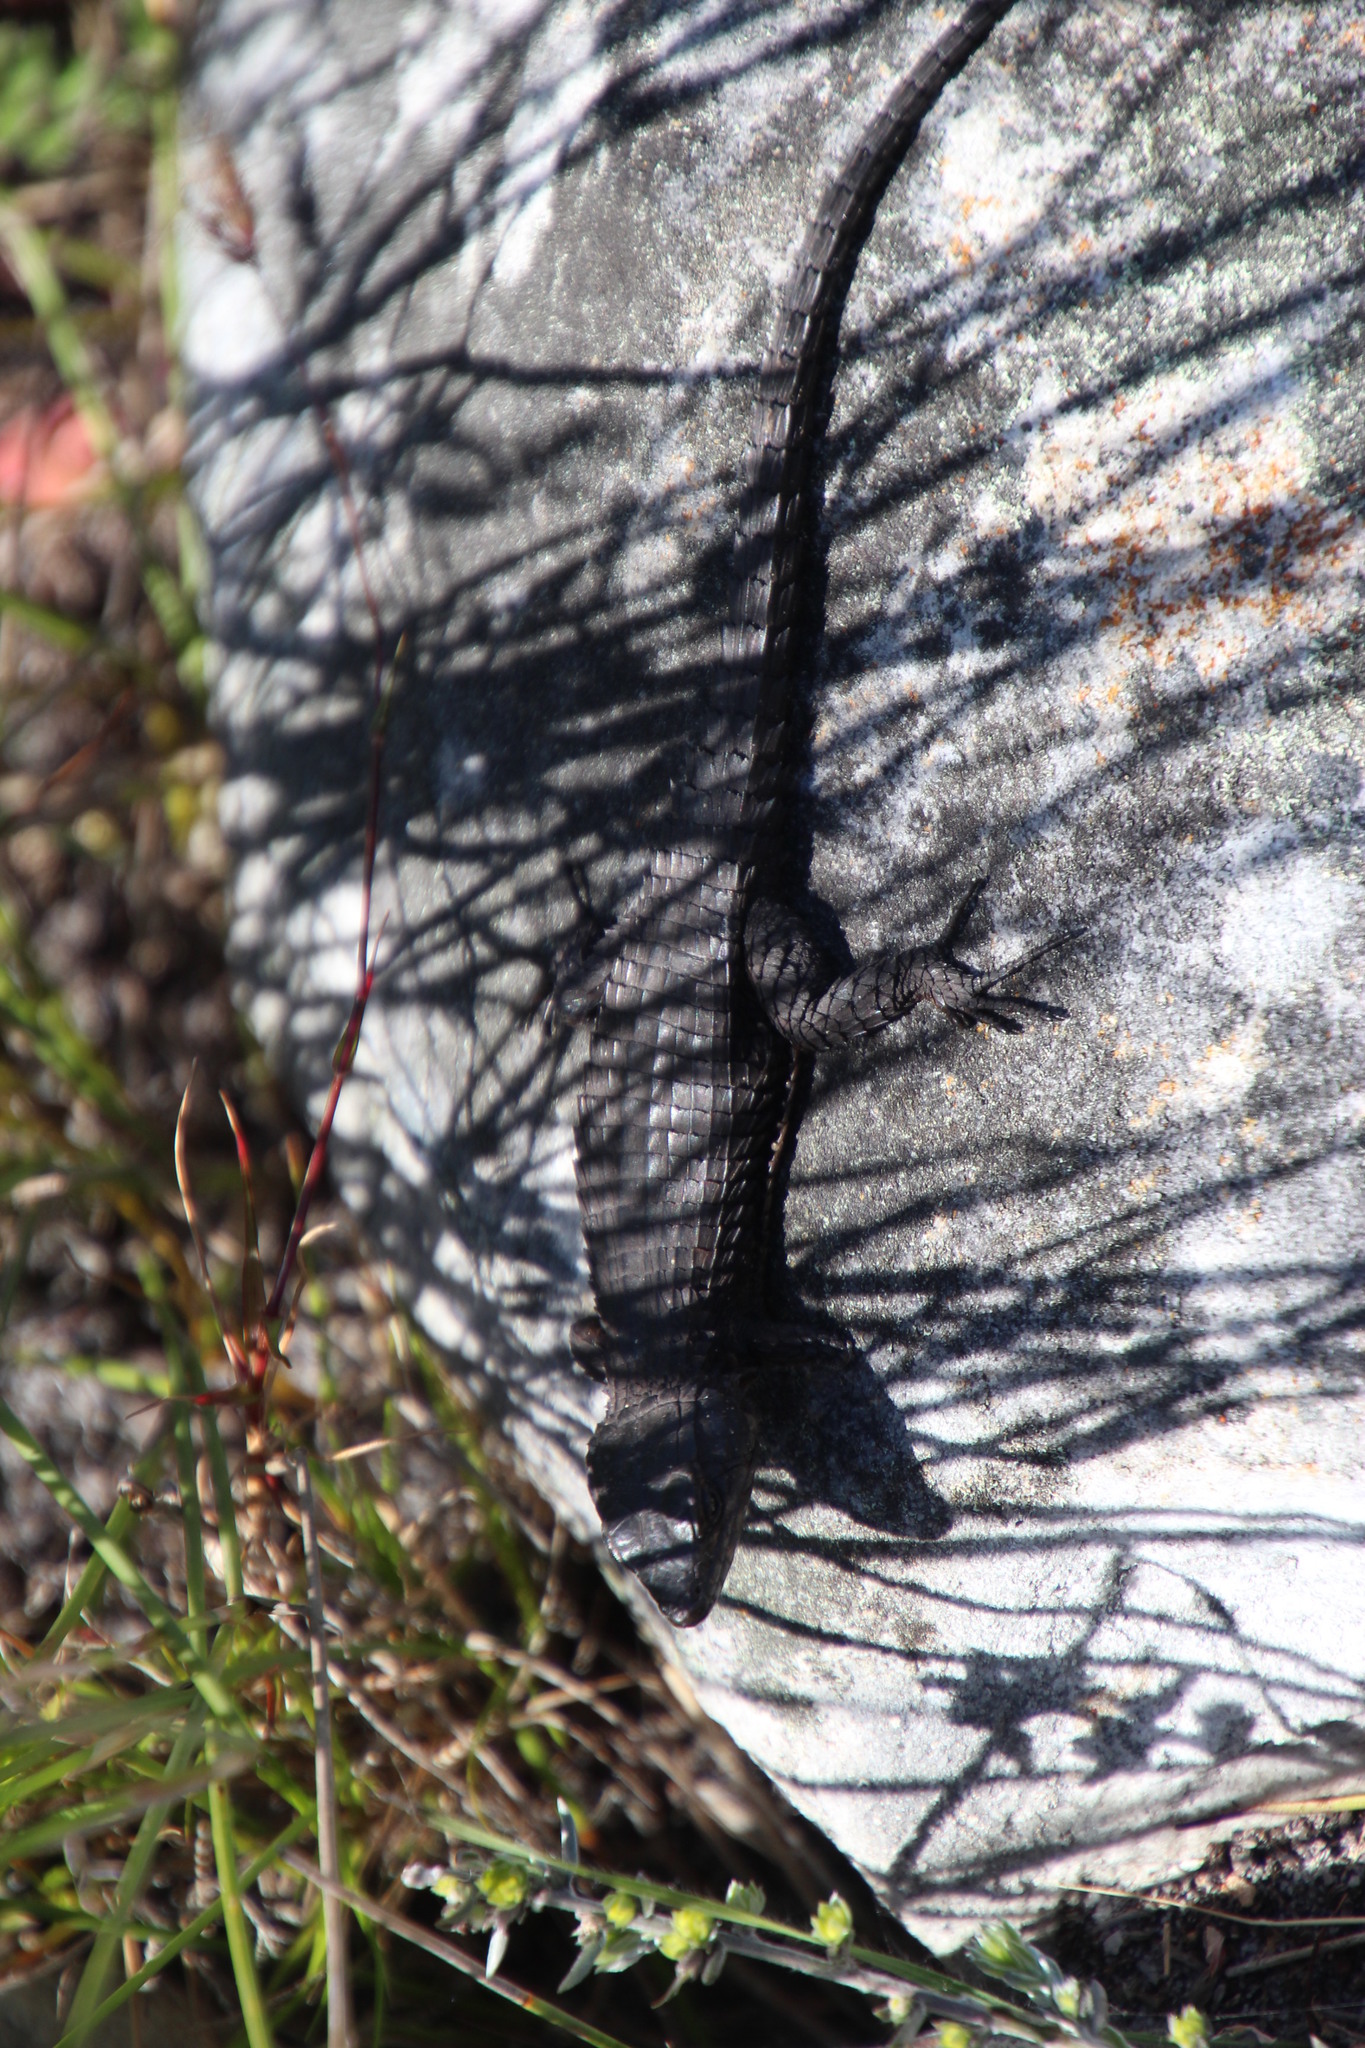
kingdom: Animalia
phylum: Chordata
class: Squamata
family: Cordylidae
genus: Cordylus
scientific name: Cordylus niger
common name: Black girdled lizard
